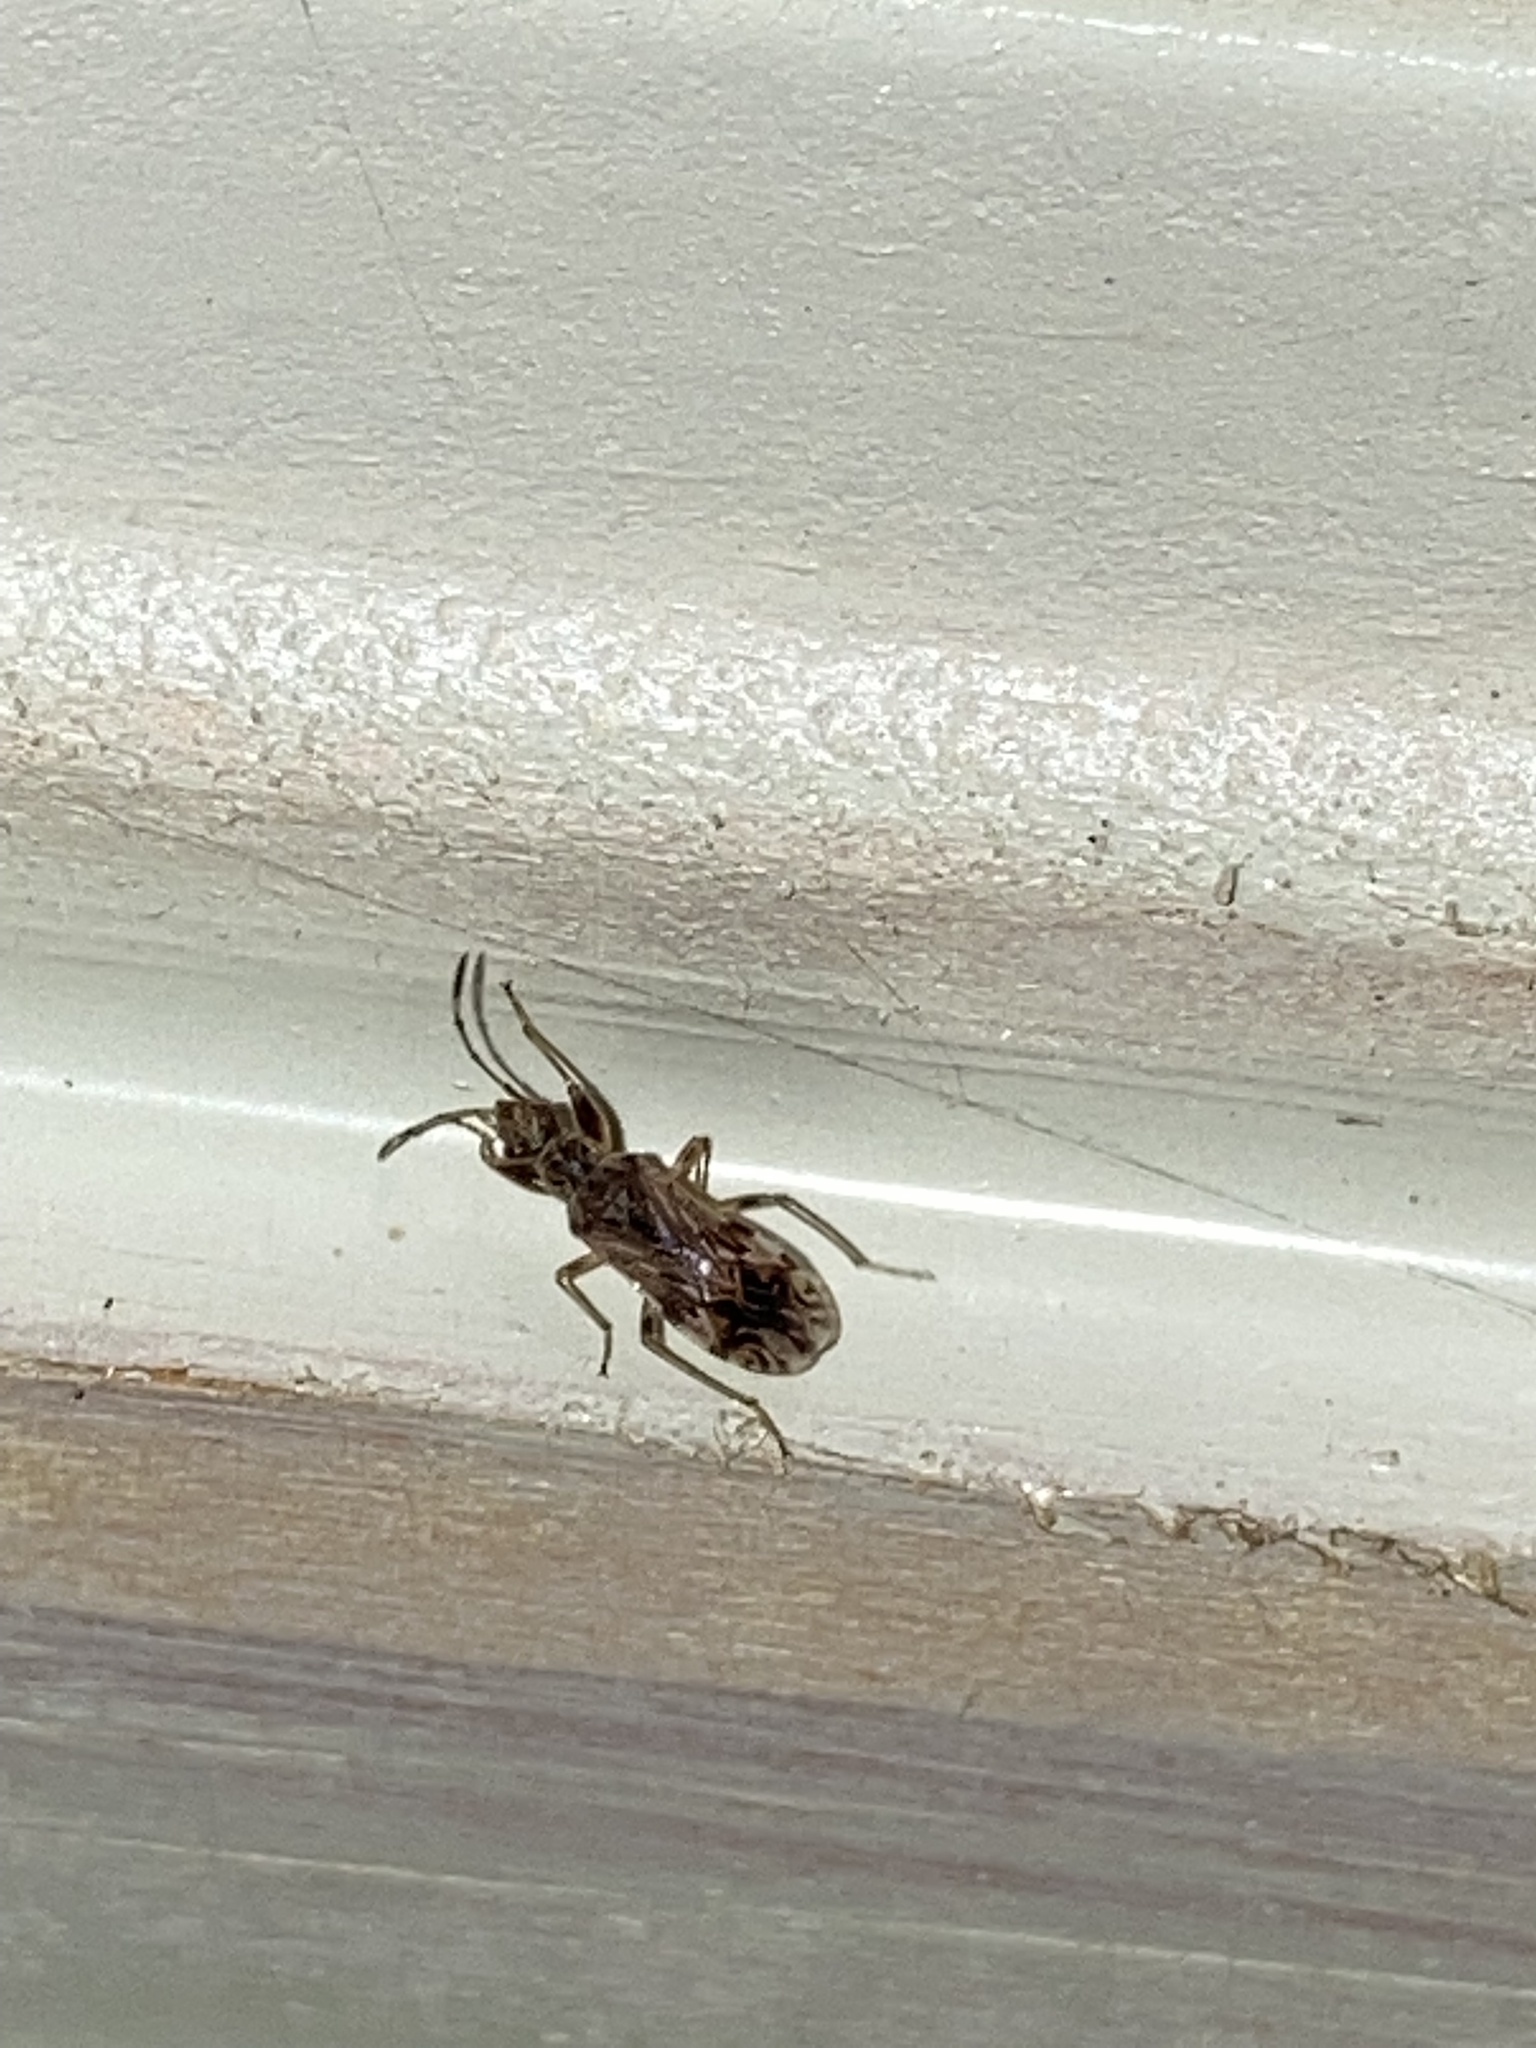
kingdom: Animalia
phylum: Arthropoda
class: Insecta
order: Hemiptera
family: Rhyparochromidae
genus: Neopamera
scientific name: Neopamera albocincta
